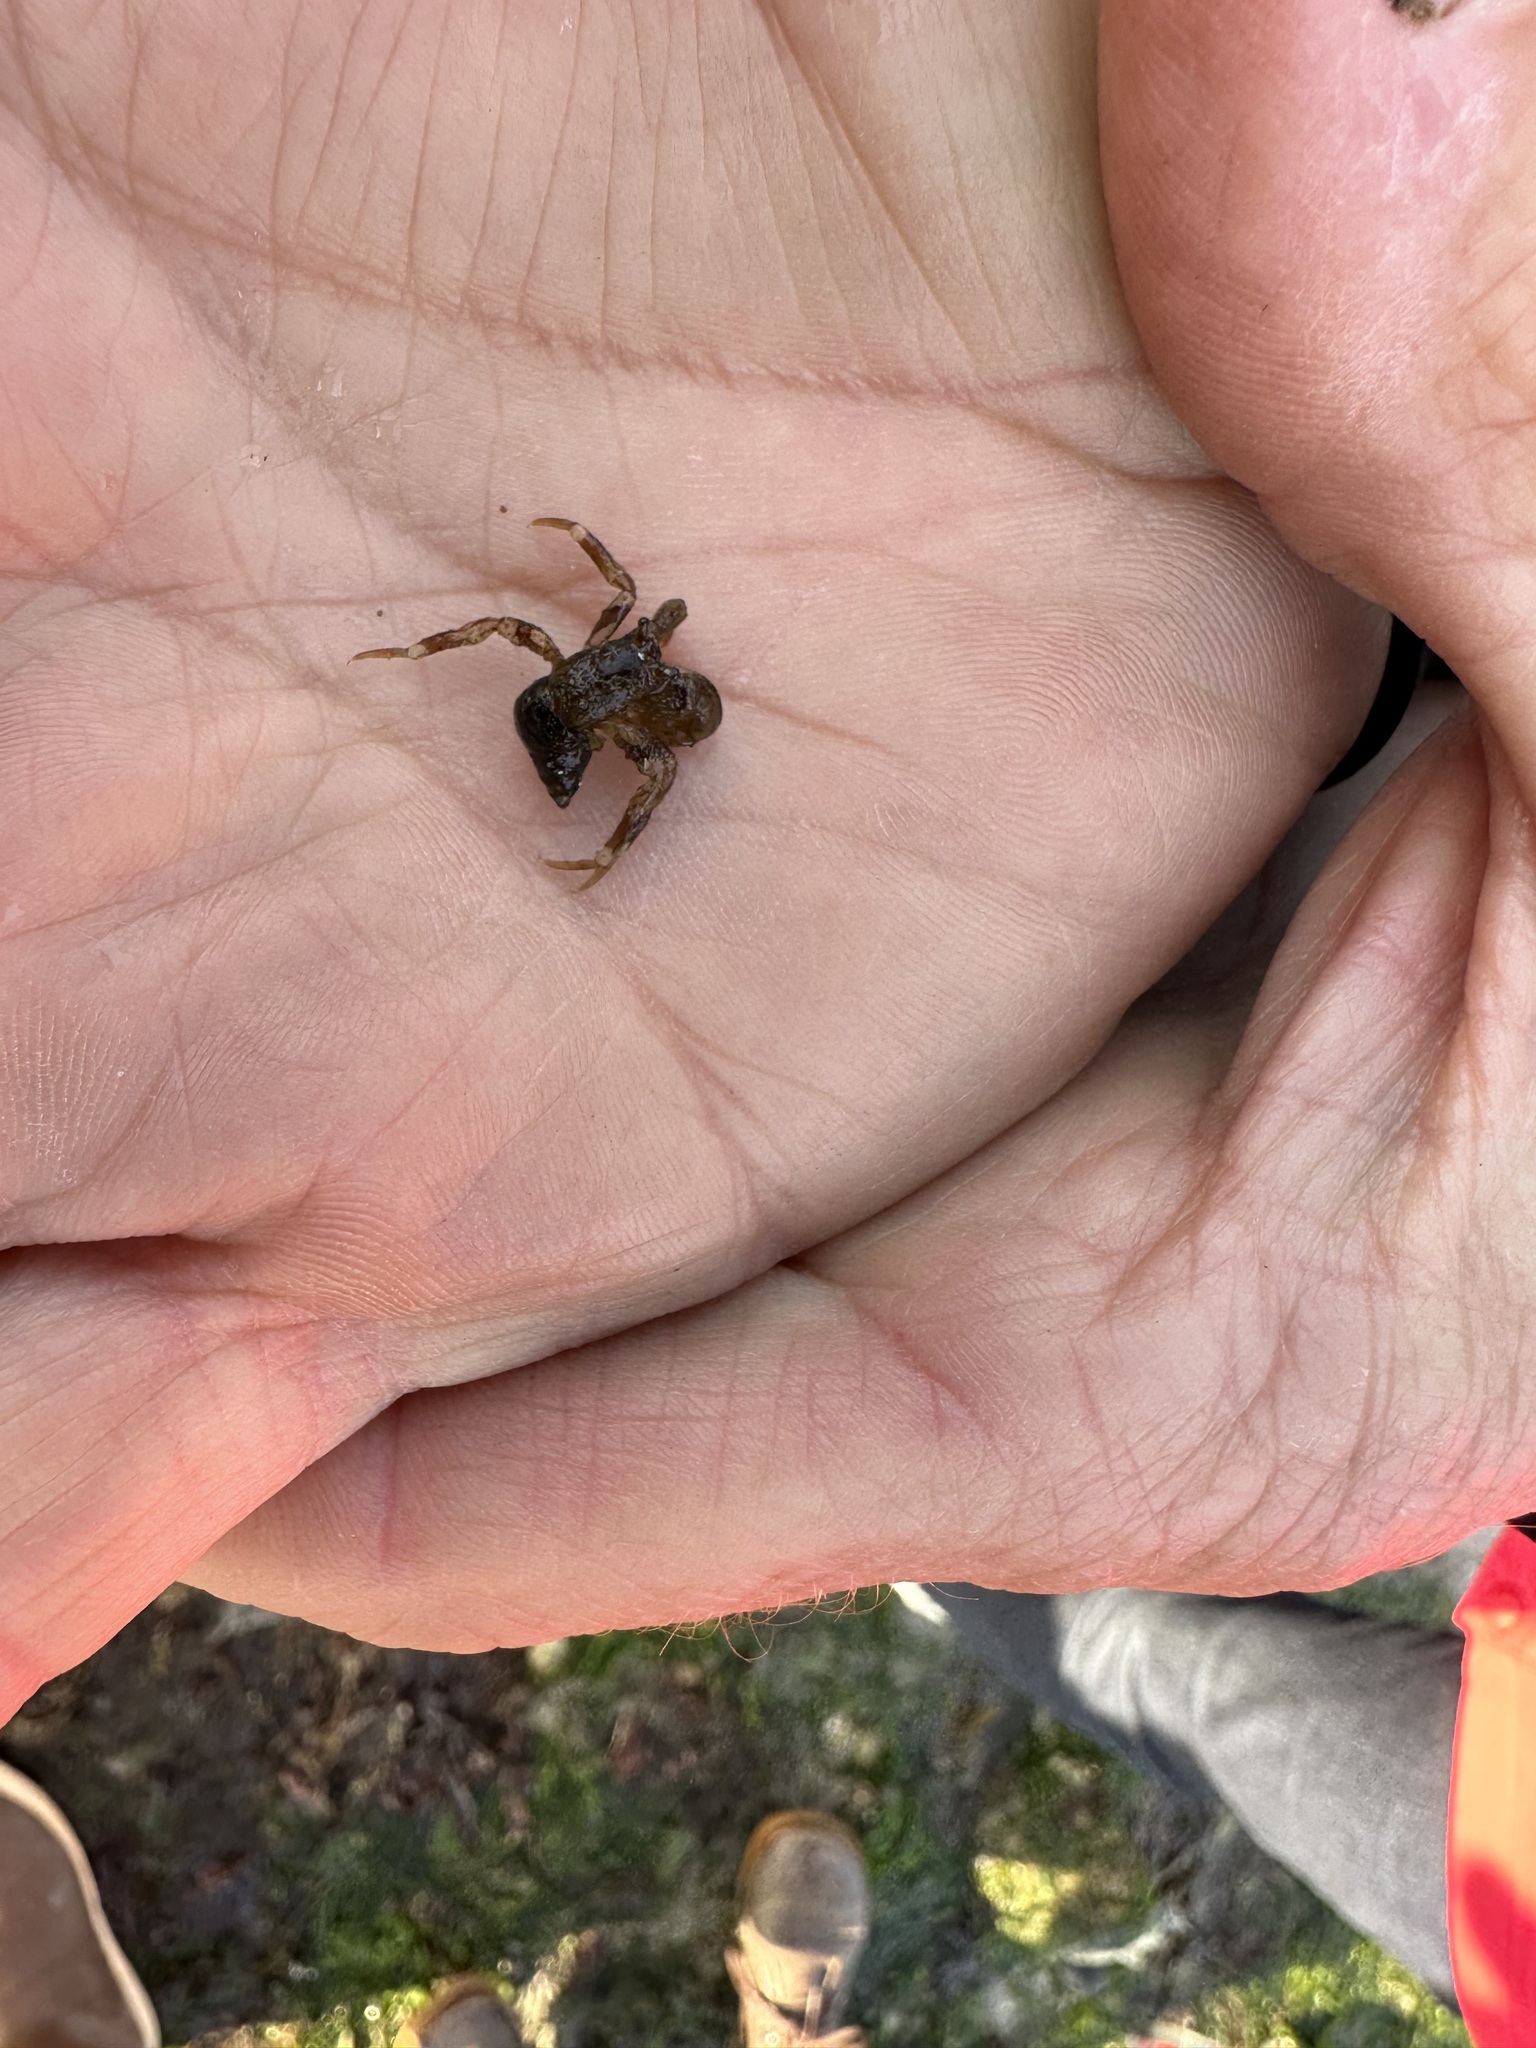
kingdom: Animalia
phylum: Arthropoda
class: Malacostraca
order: Decapoda
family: Paguridae
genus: Pagurus
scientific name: Pagurus hirsutiusculus
